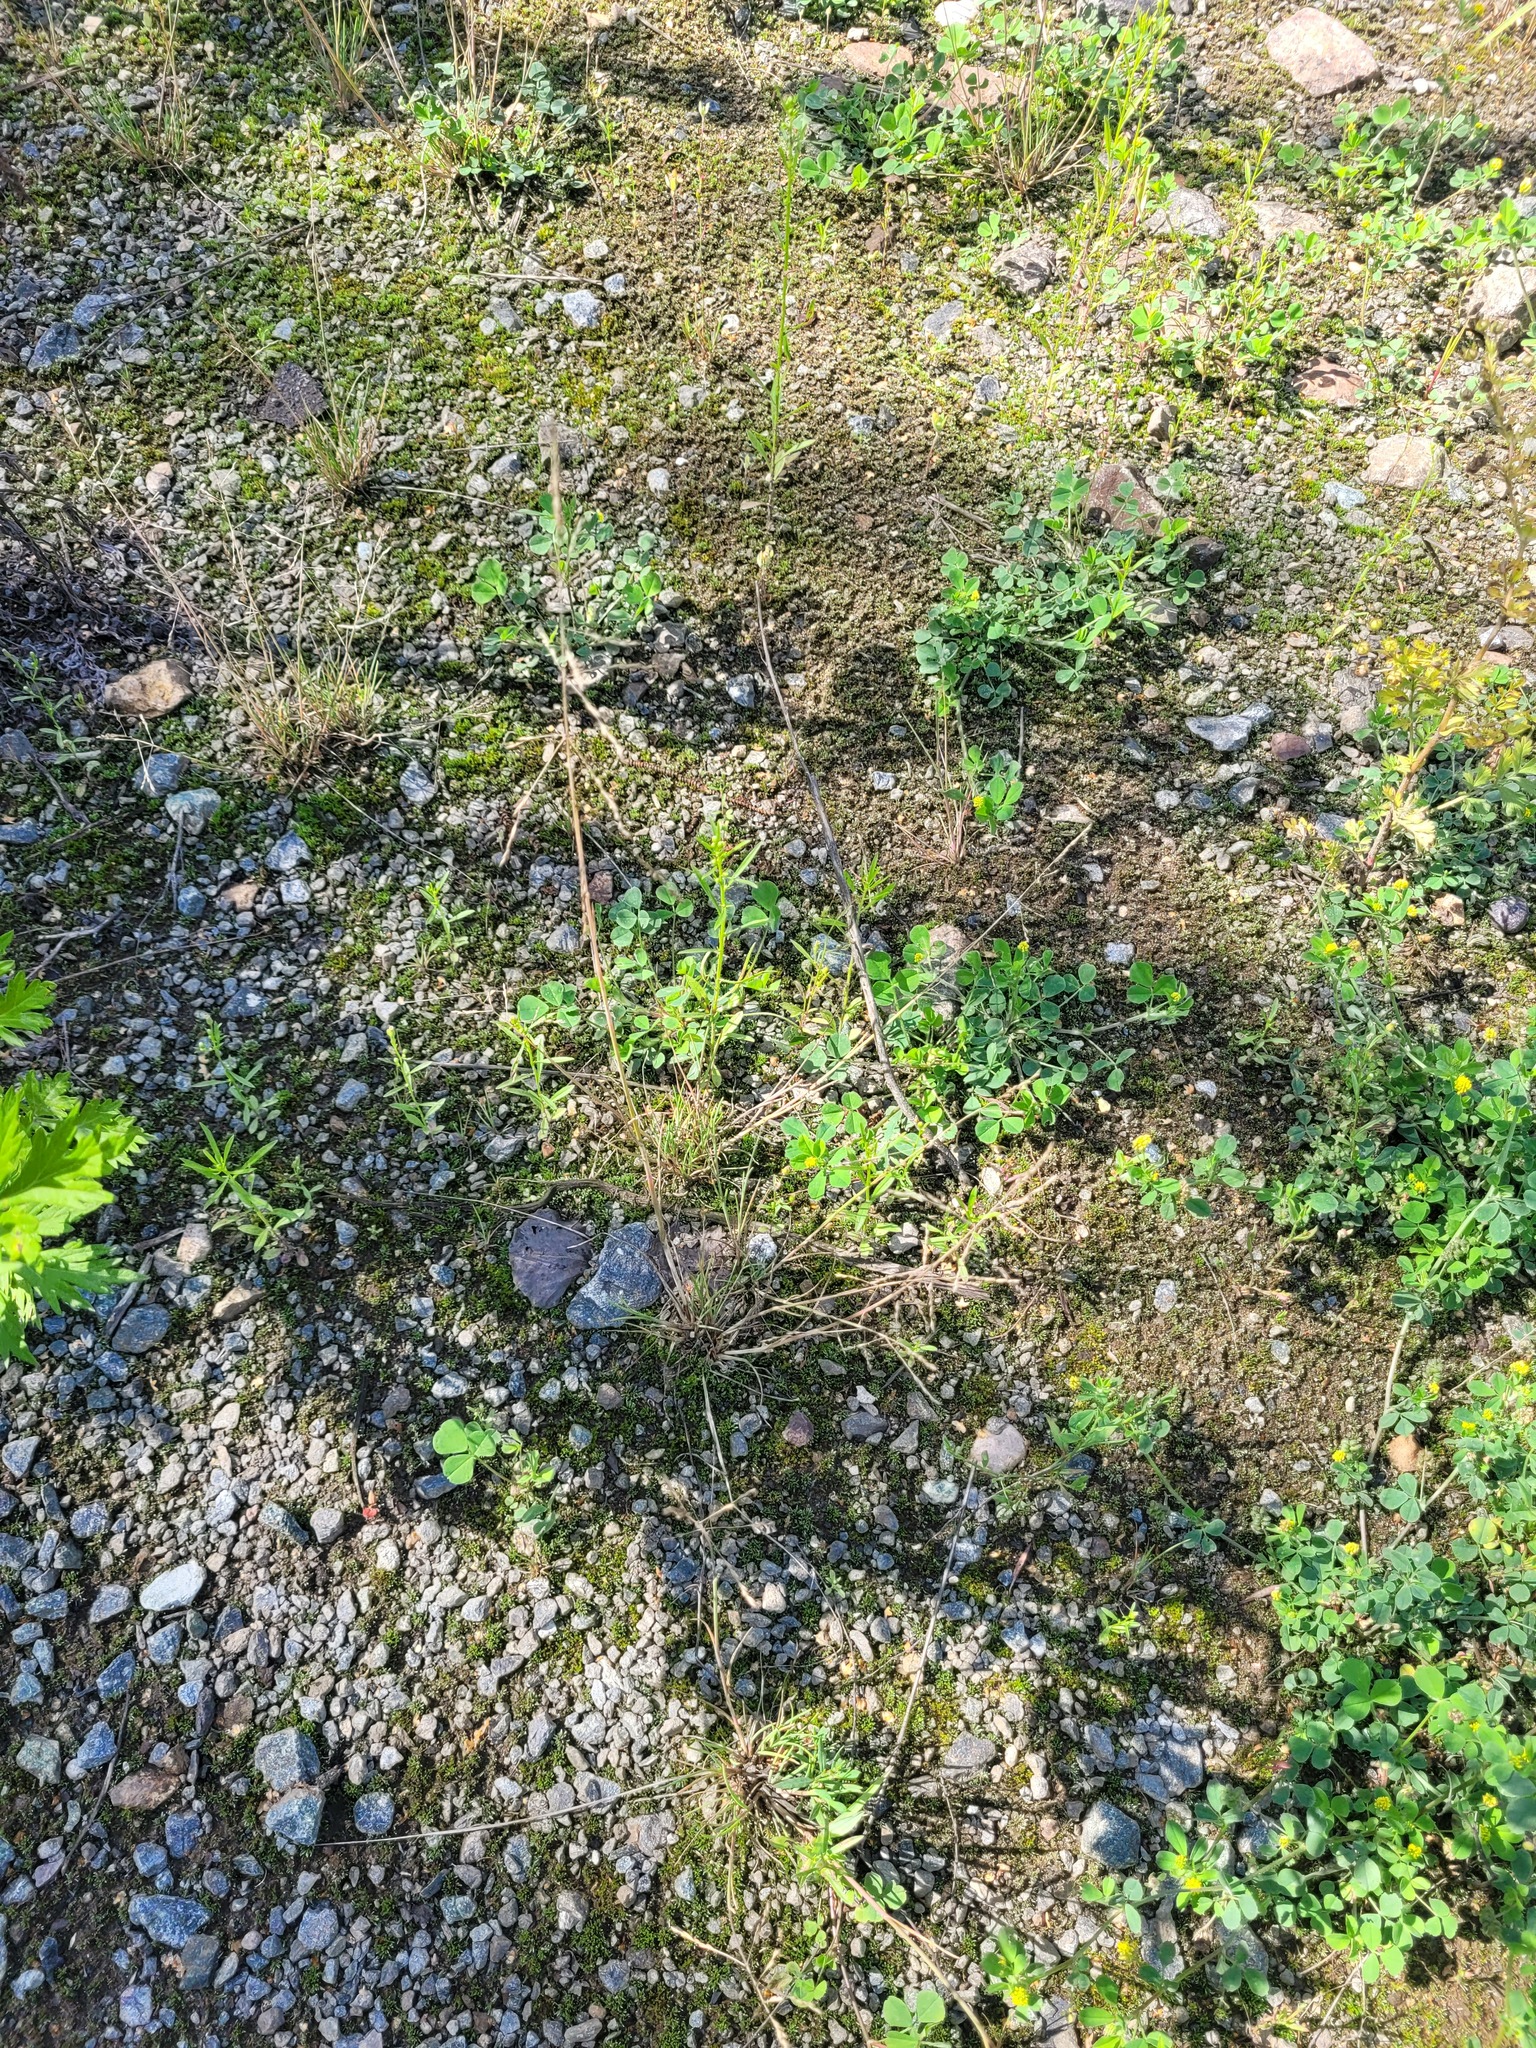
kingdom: Plantae
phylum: Tracheophyta
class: Liliopsida
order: Poales
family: Poaceae
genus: Puccinellia
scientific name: Puccinellia distans
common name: Weeping alkaligrass
